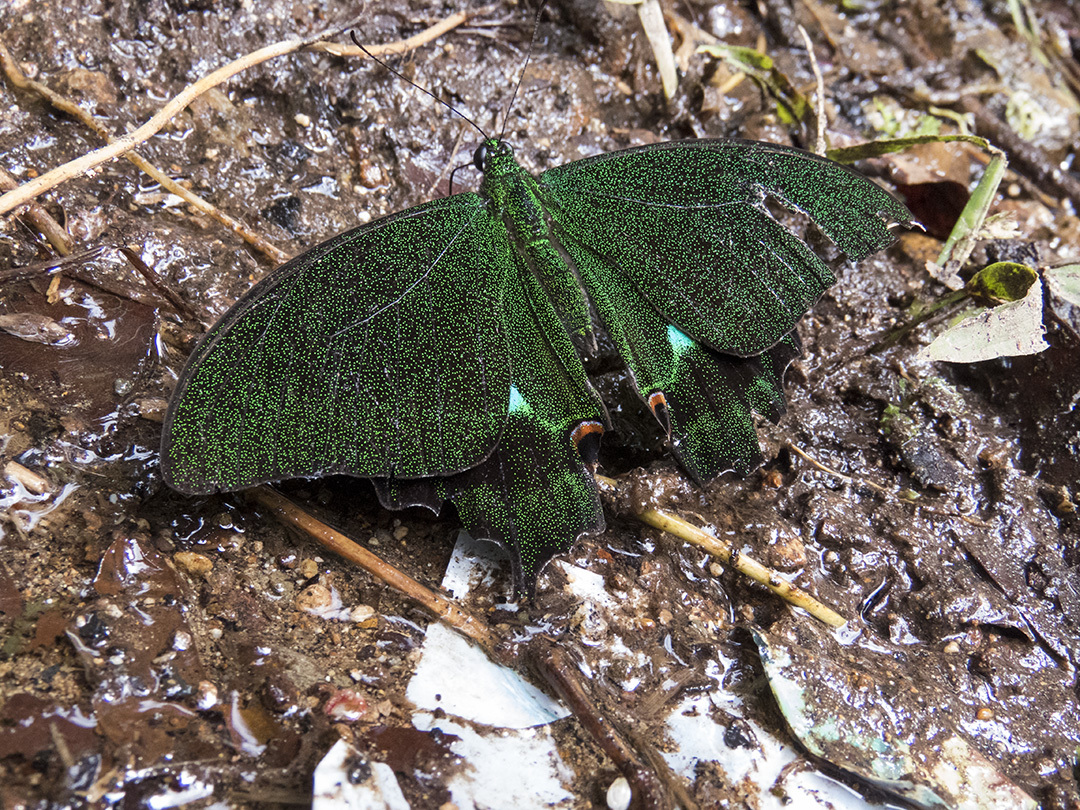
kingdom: Animalia
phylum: Arthropoda
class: Insecta
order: Lepidoptera
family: Papilionidae
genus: Papilio
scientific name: Papilio paris
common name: Paris peacock
